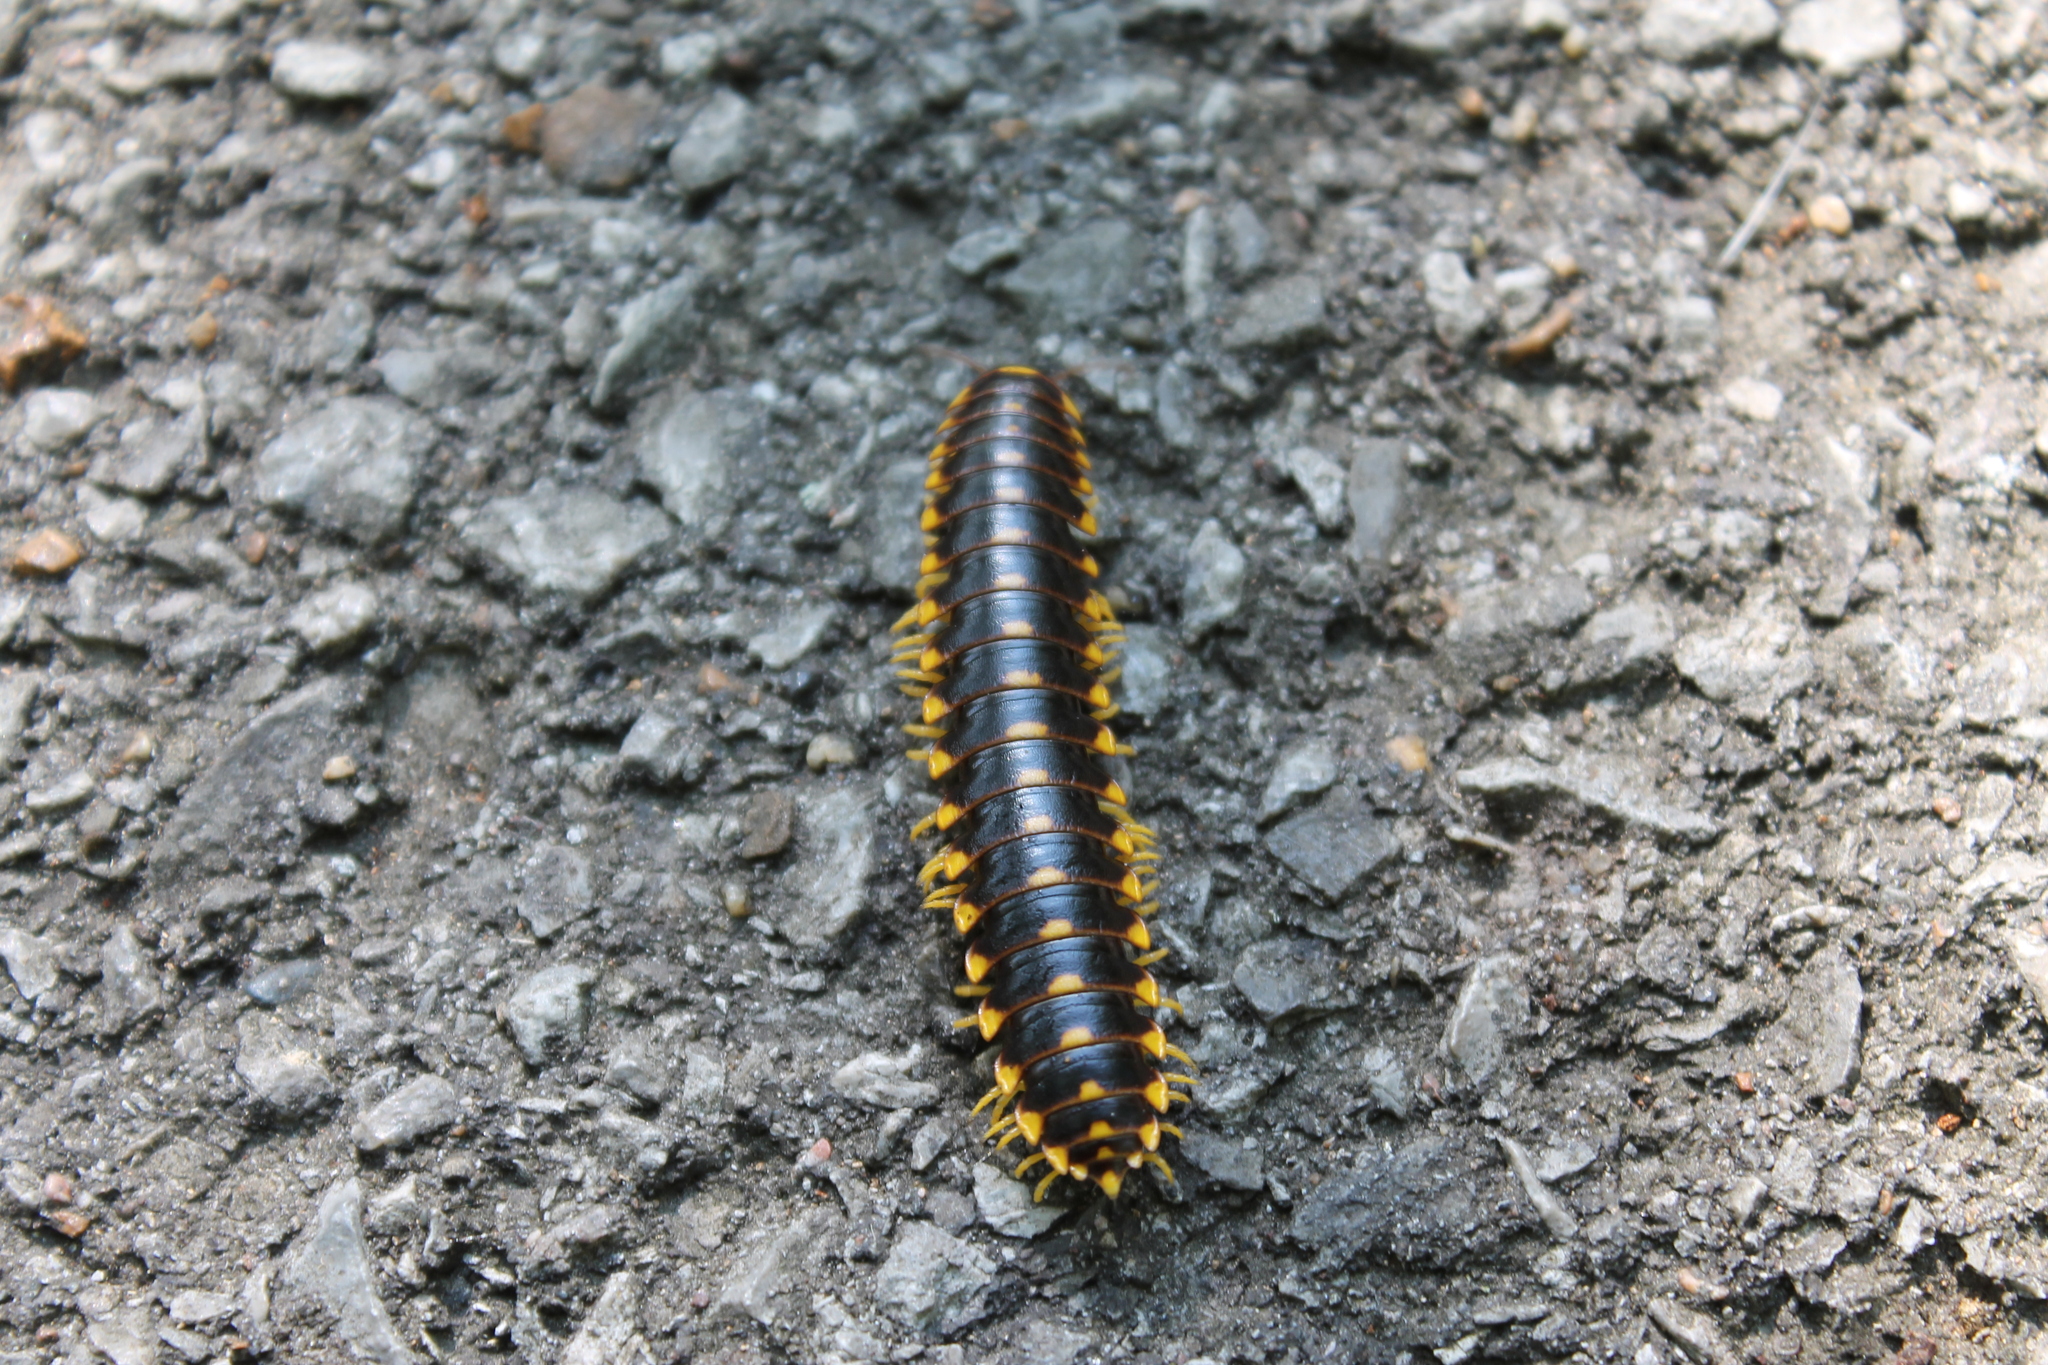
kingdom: Animalia
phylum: Arthropoda
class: Diplopoda
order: Polydesmida
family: Xystodesmidae
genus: Apheloria
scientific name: Apheloria montana
